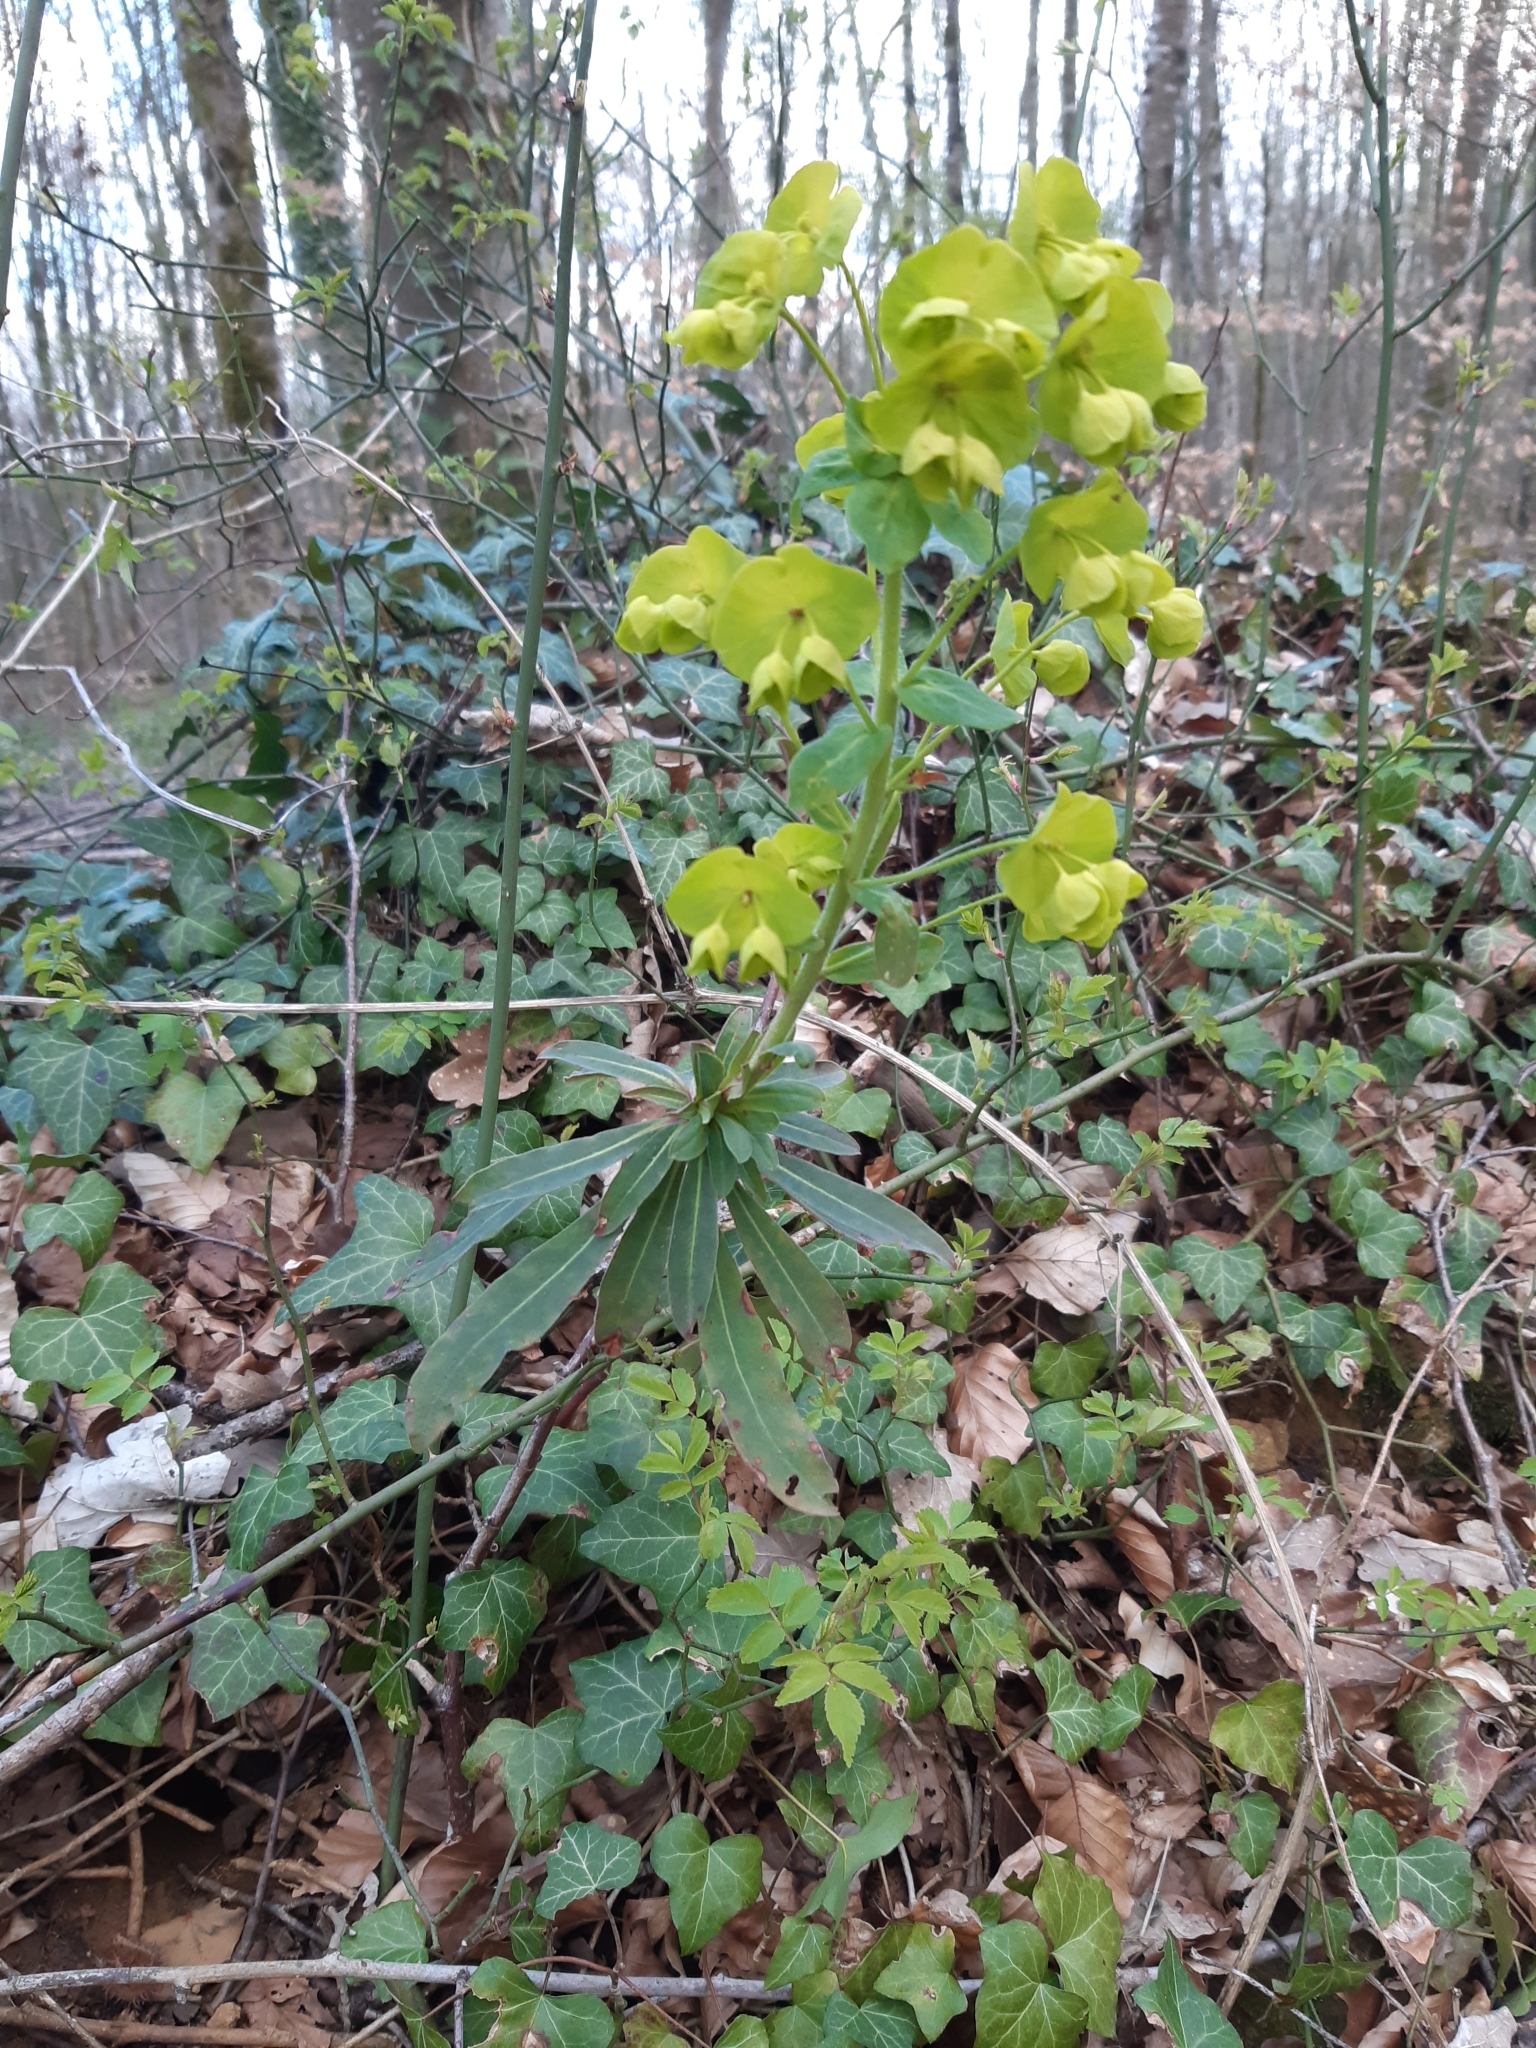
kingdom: Plantae
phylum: Tracheophyta
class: Magnoliopsida
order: Malpighiales
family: Euphorbiaceae
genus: Euphorbia
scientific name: Euphorbia amygdaloides
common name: Wood spurge
